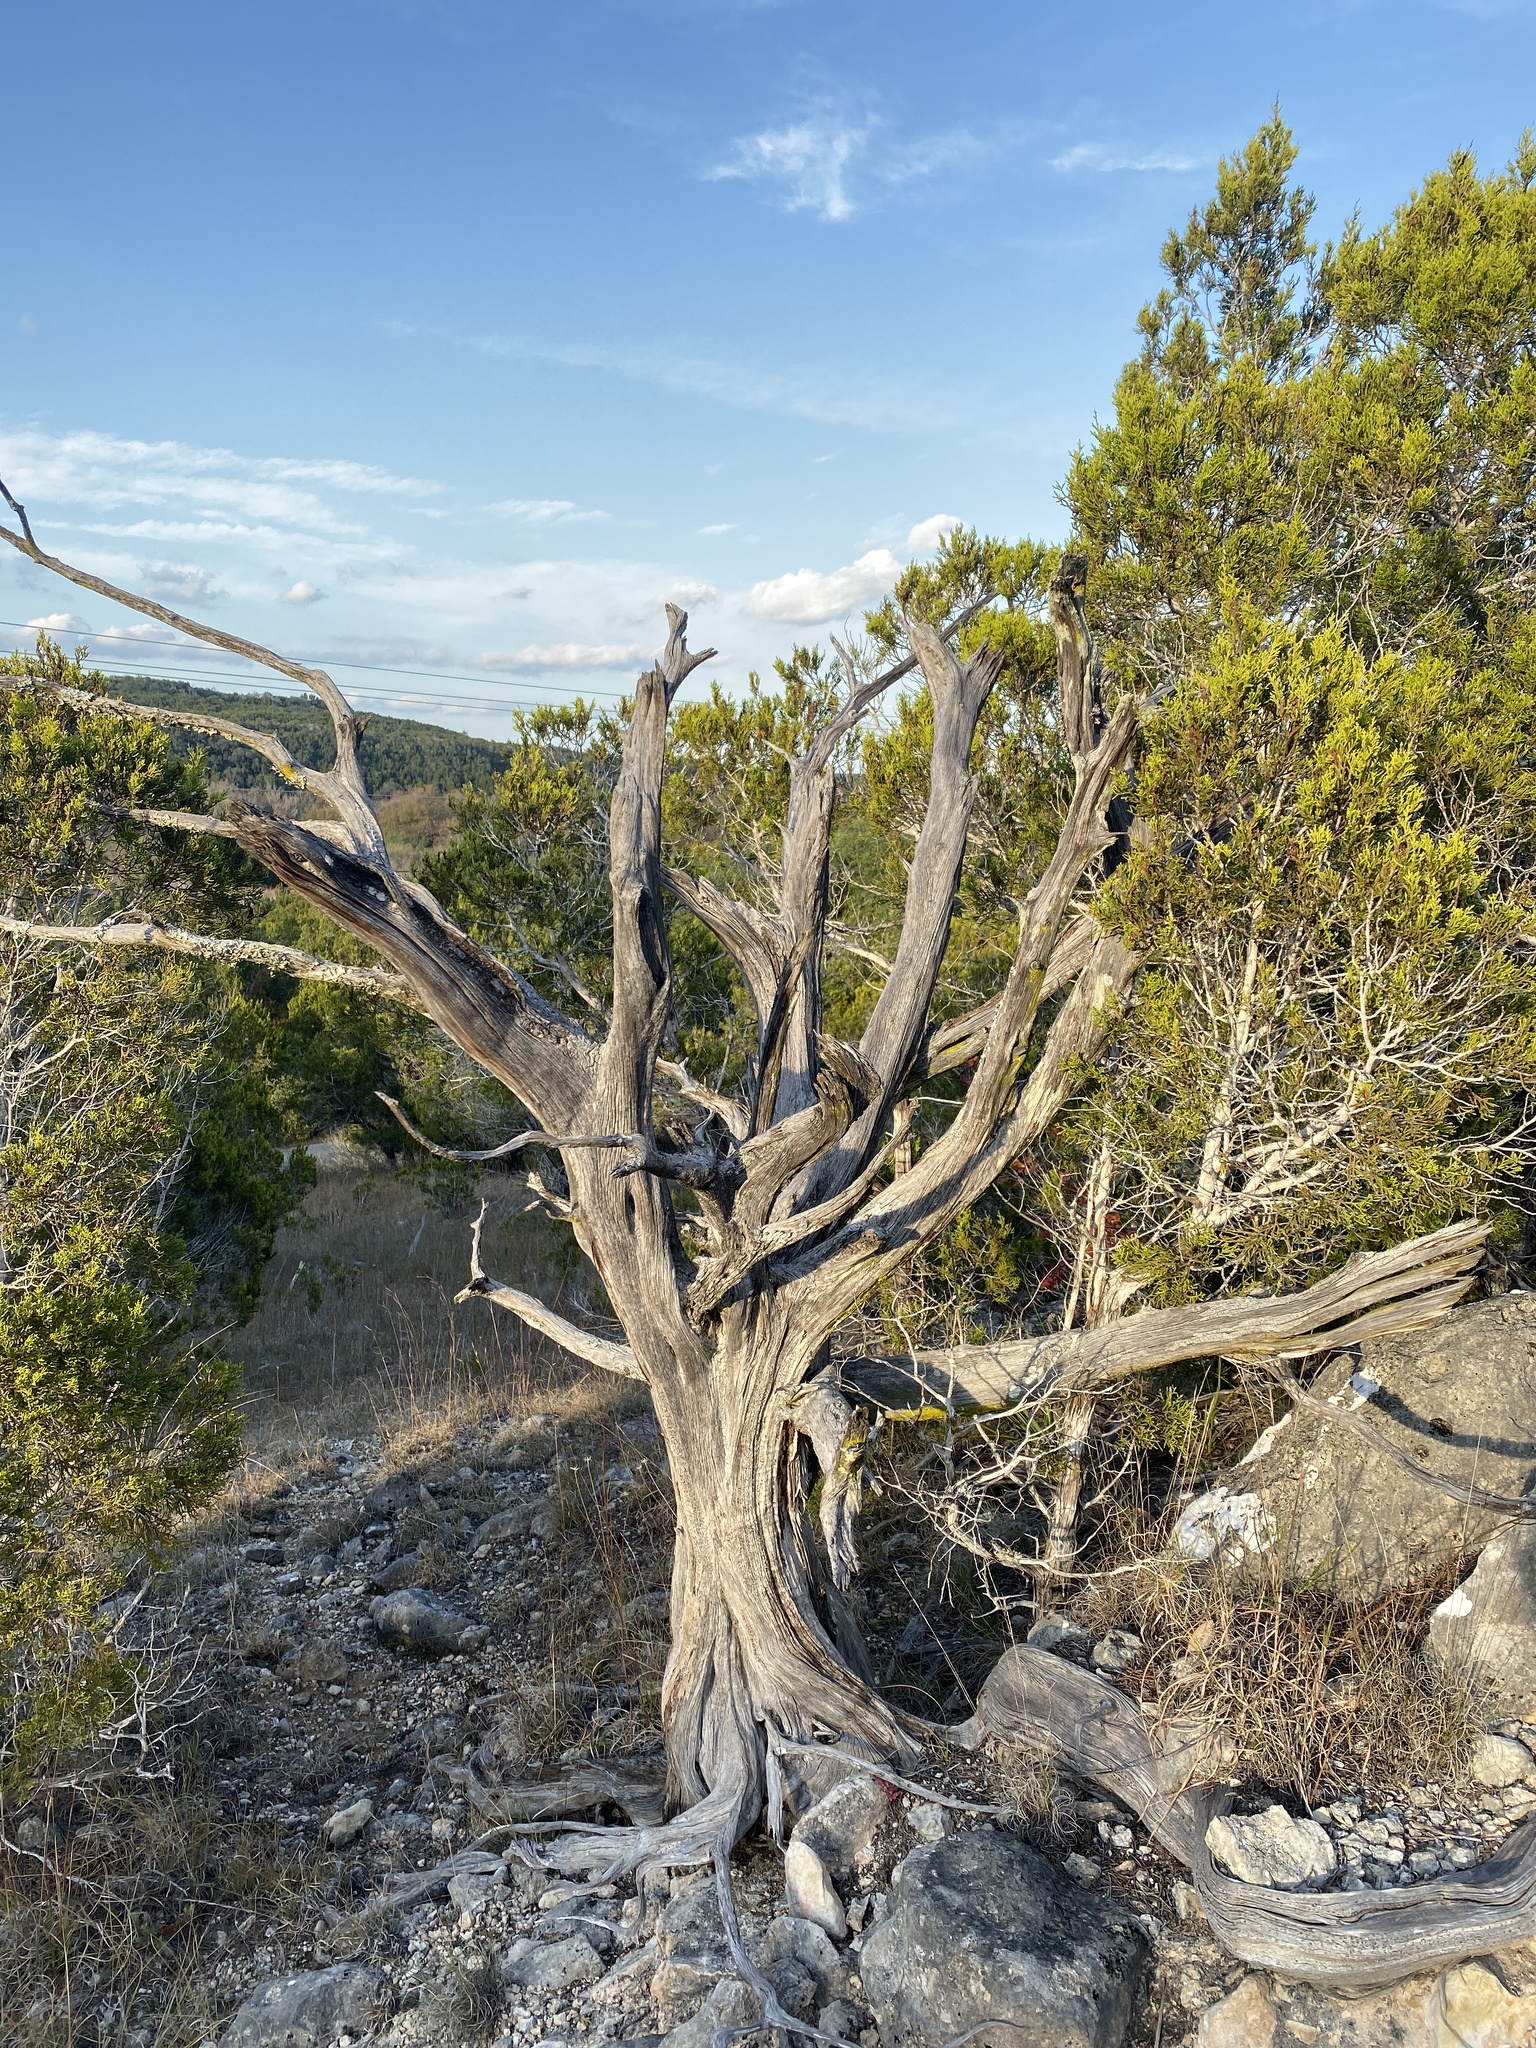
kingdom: Plantae
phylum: Tracheophyta
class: Pinopsida
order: Pinales
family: Cupressaceae
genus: Juniperus
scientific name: Juniperus ashei
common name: Mexican juniper
